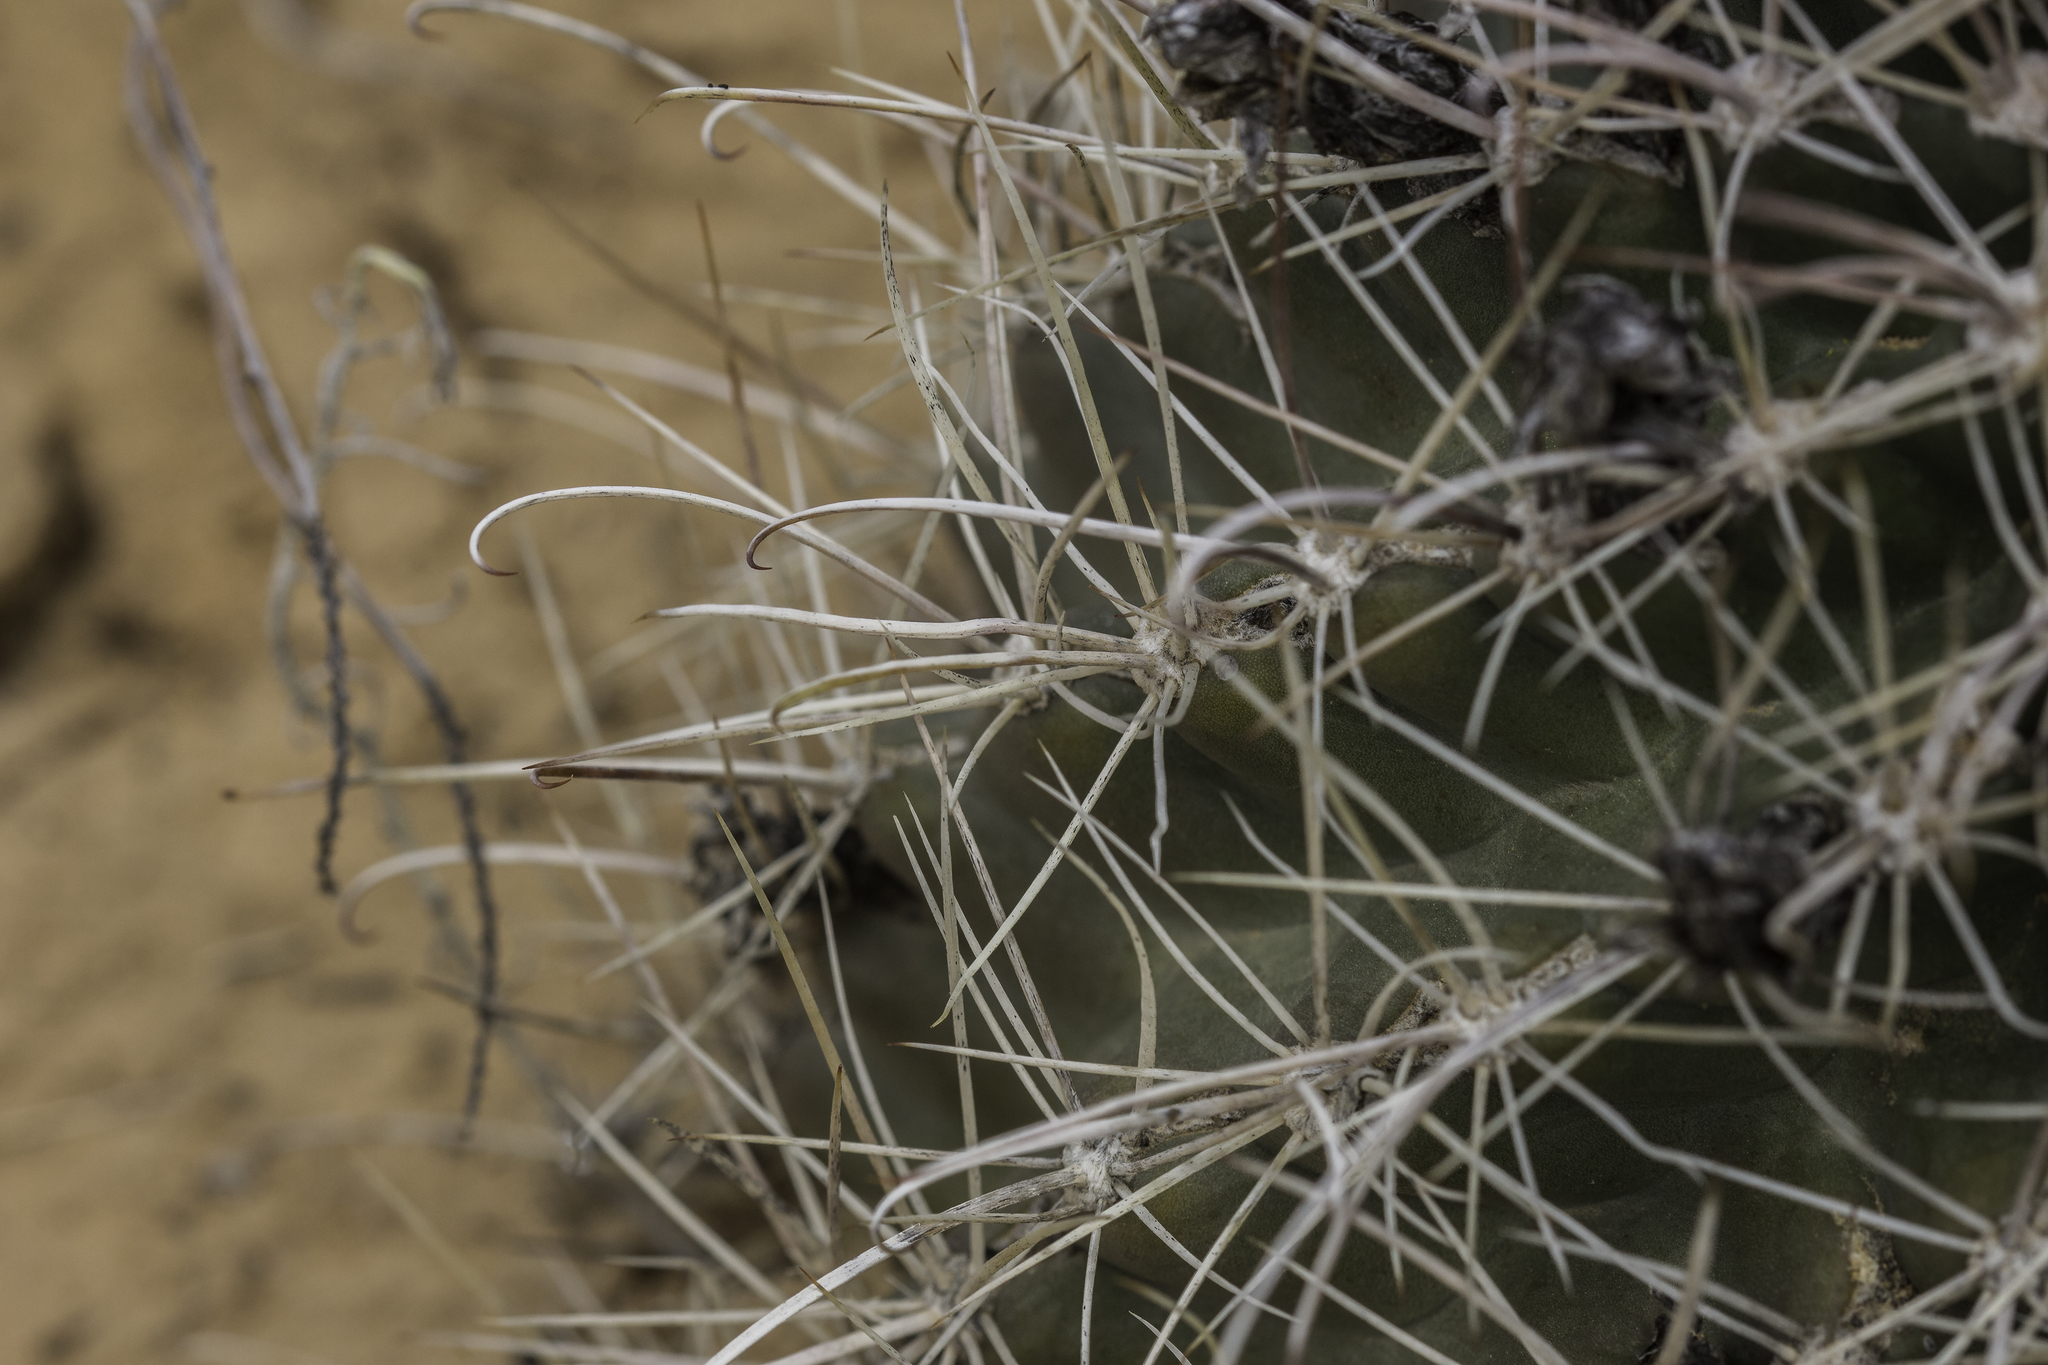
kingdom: Plantae
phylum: Tracheophyta
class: Magnoliopsida
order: Caryophyllales
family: Cactaceae
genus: Sclerocactus
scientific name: Sclerocactus cloverae
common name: Clover's eagle-claw cactus
